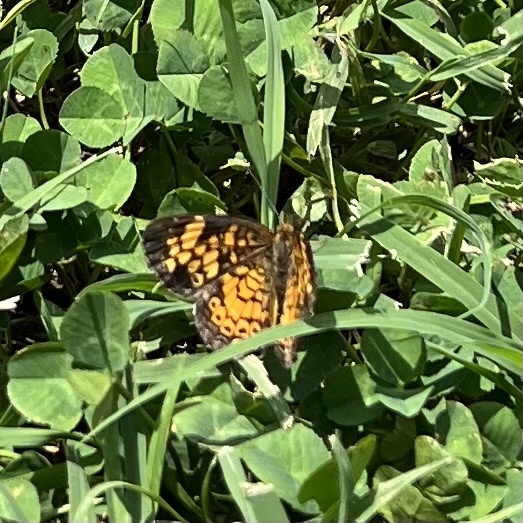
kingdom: Animalia
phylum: Arthropoda
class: Insecta
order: Lepidoptera
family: Nymphalidae
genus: Phyciodes
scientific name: Phyciodes tharos
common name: Pearl crescent
